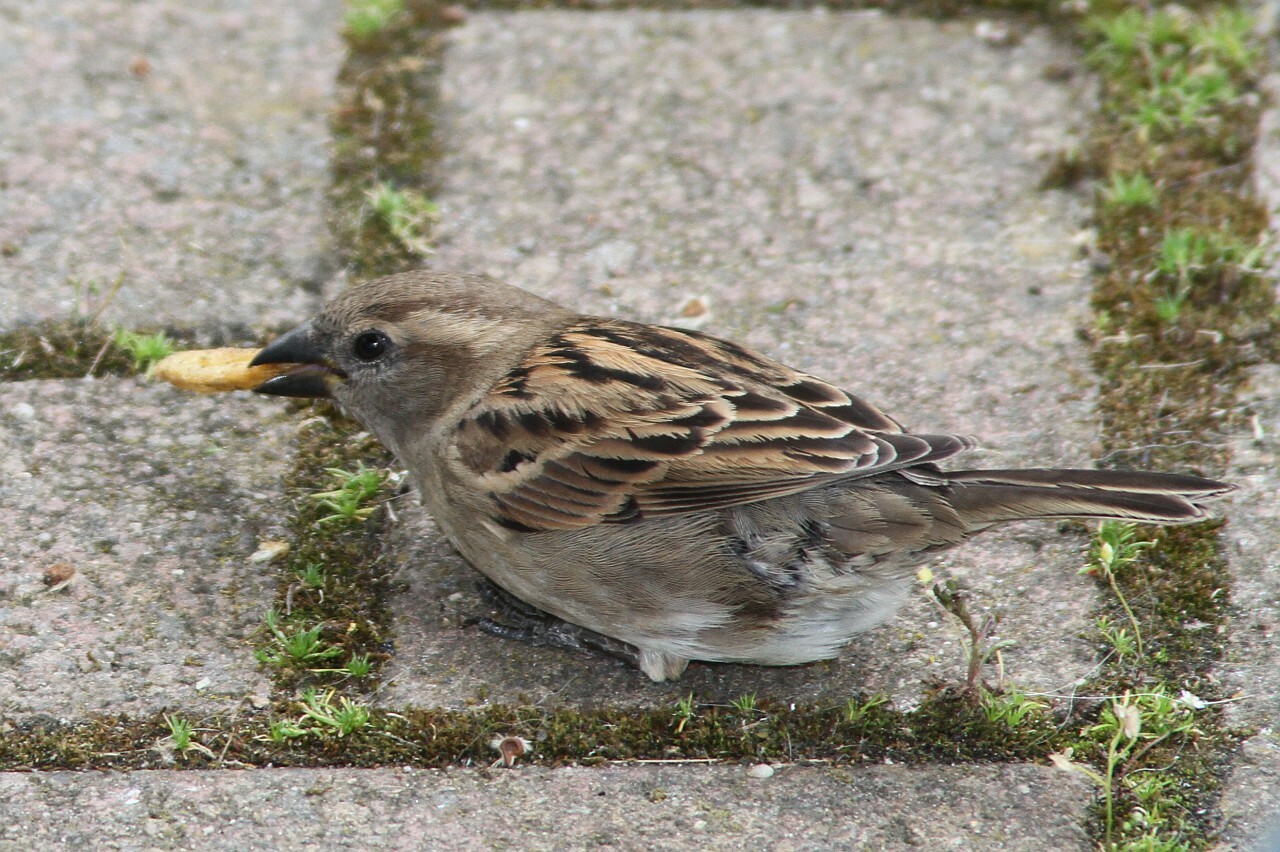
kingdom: Animalia
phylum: Chordata
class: Aves
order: Passeriformes
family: Passeridae
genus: Passer
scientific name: Passer domesticus
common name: House sparrow
